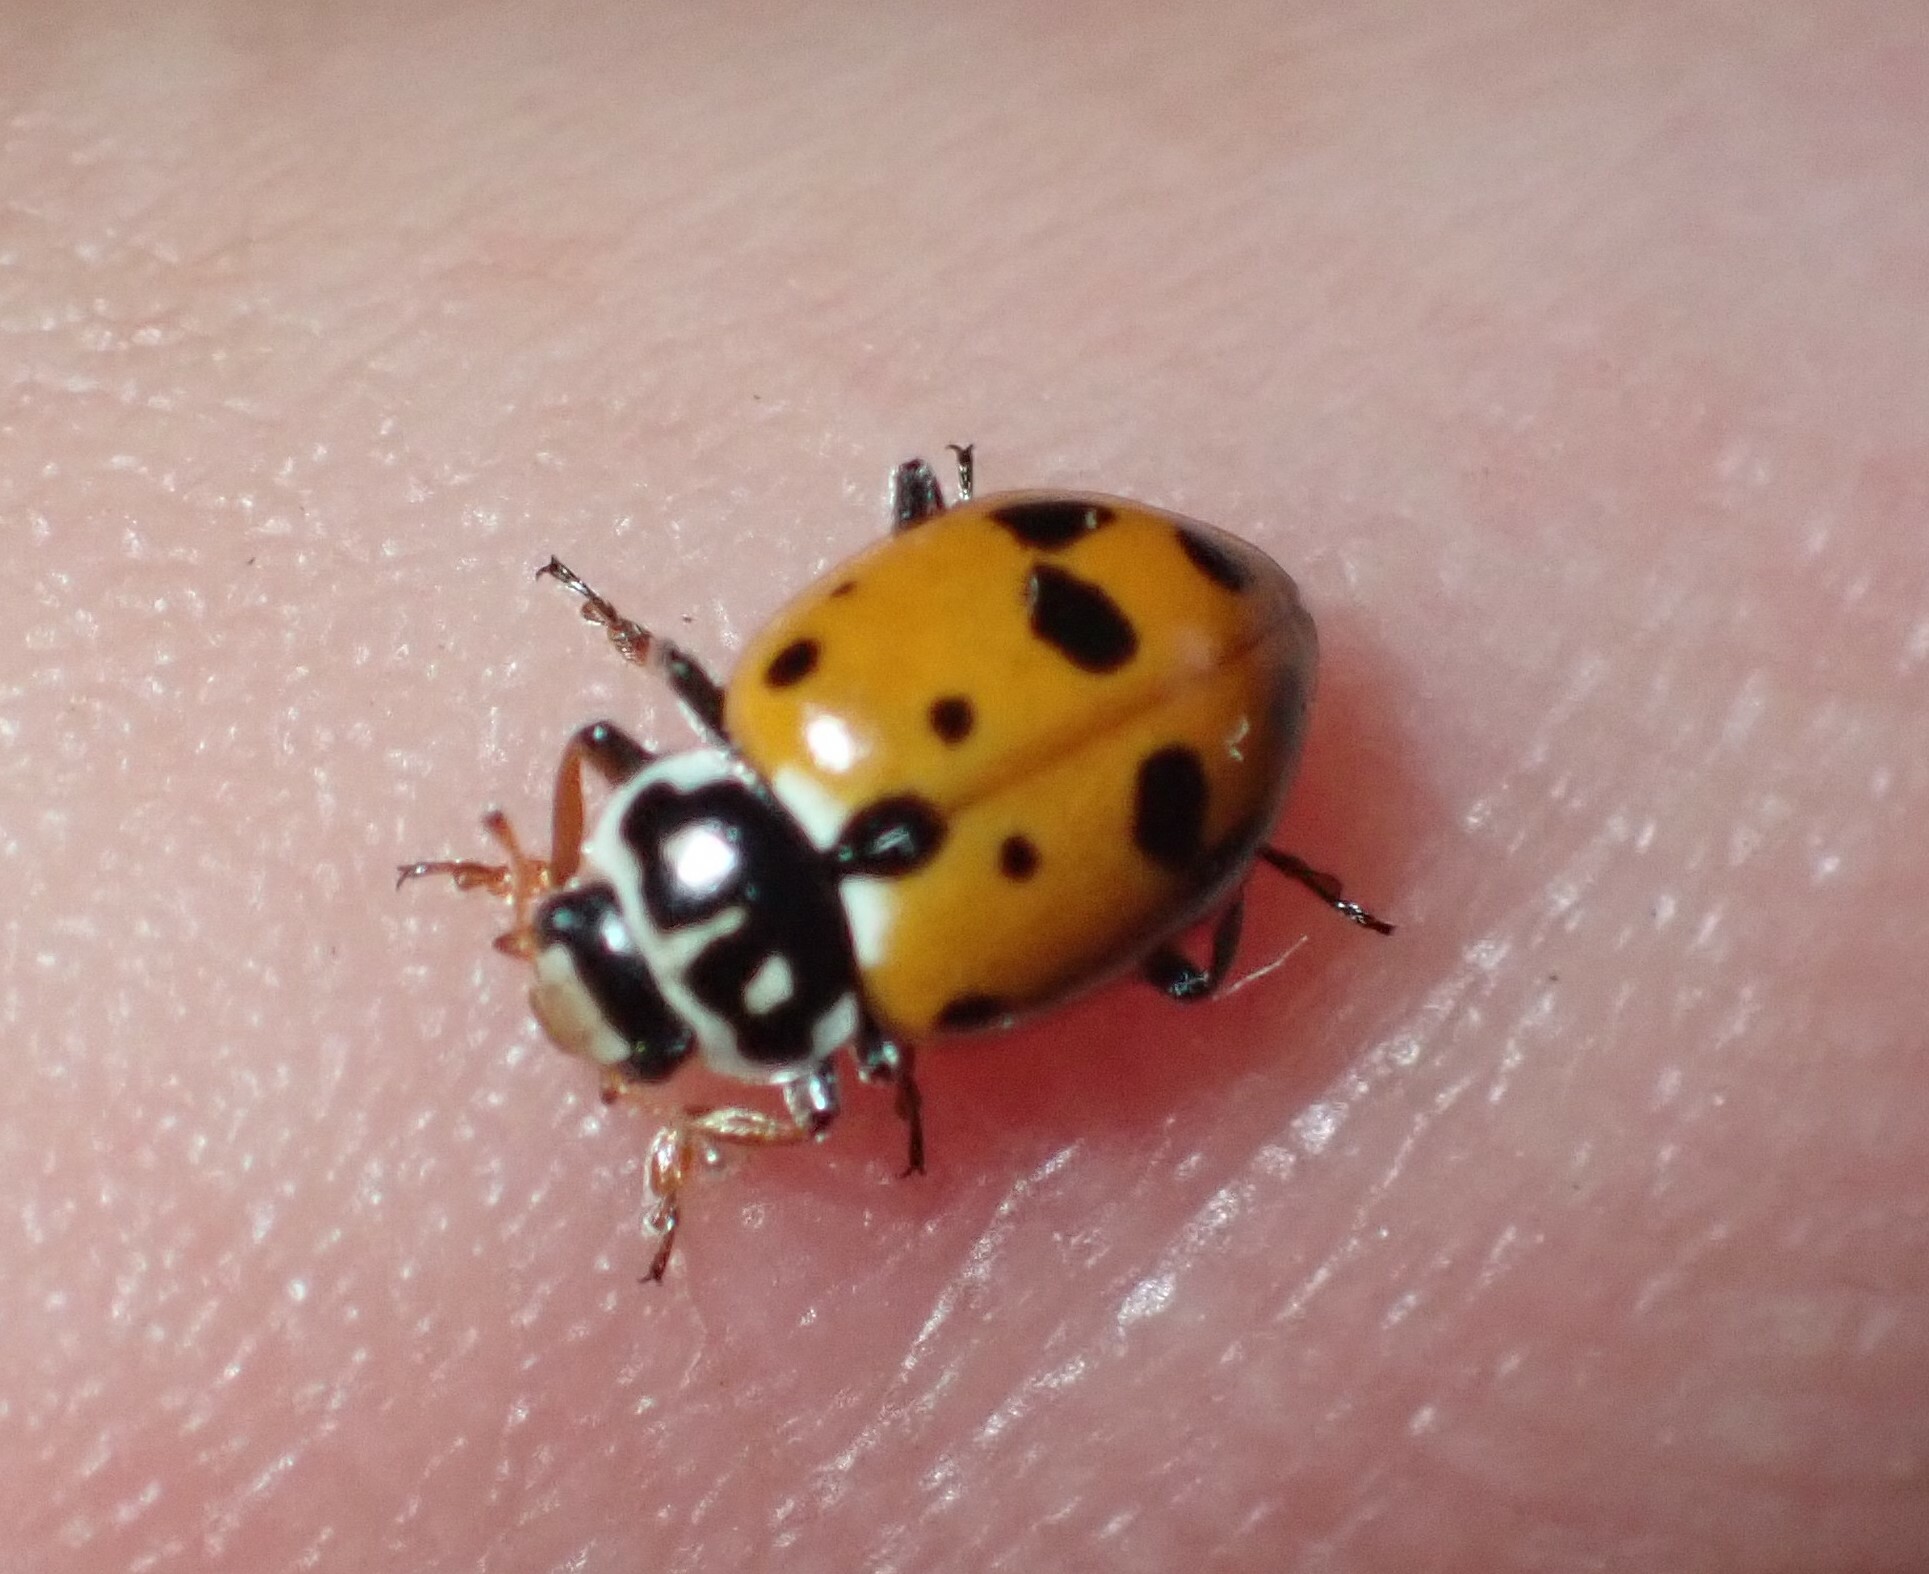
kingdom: Animalia
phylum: Arthropoda
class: Insecta
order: Coleoptera
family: Coccinellidae
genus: Hippodamia
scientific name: Hippodamia variegata
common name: Ladybird beetle
